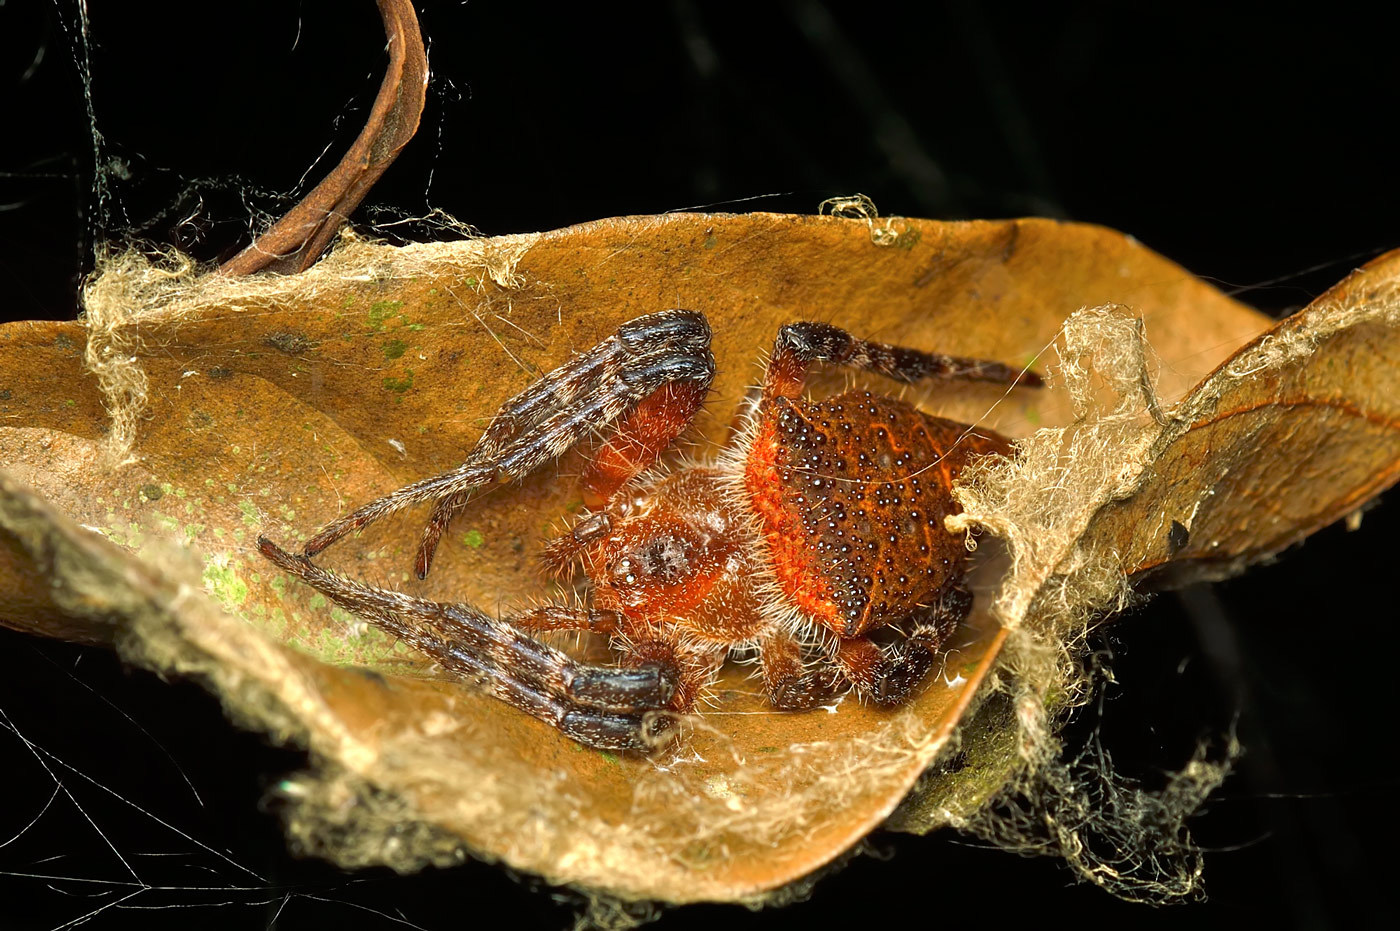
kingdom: Animalia
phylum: Arthropoda
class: Arachnida
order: Araneae
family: Araneidae
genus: Cyrtophora
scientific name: Cyrtophora unicolor
